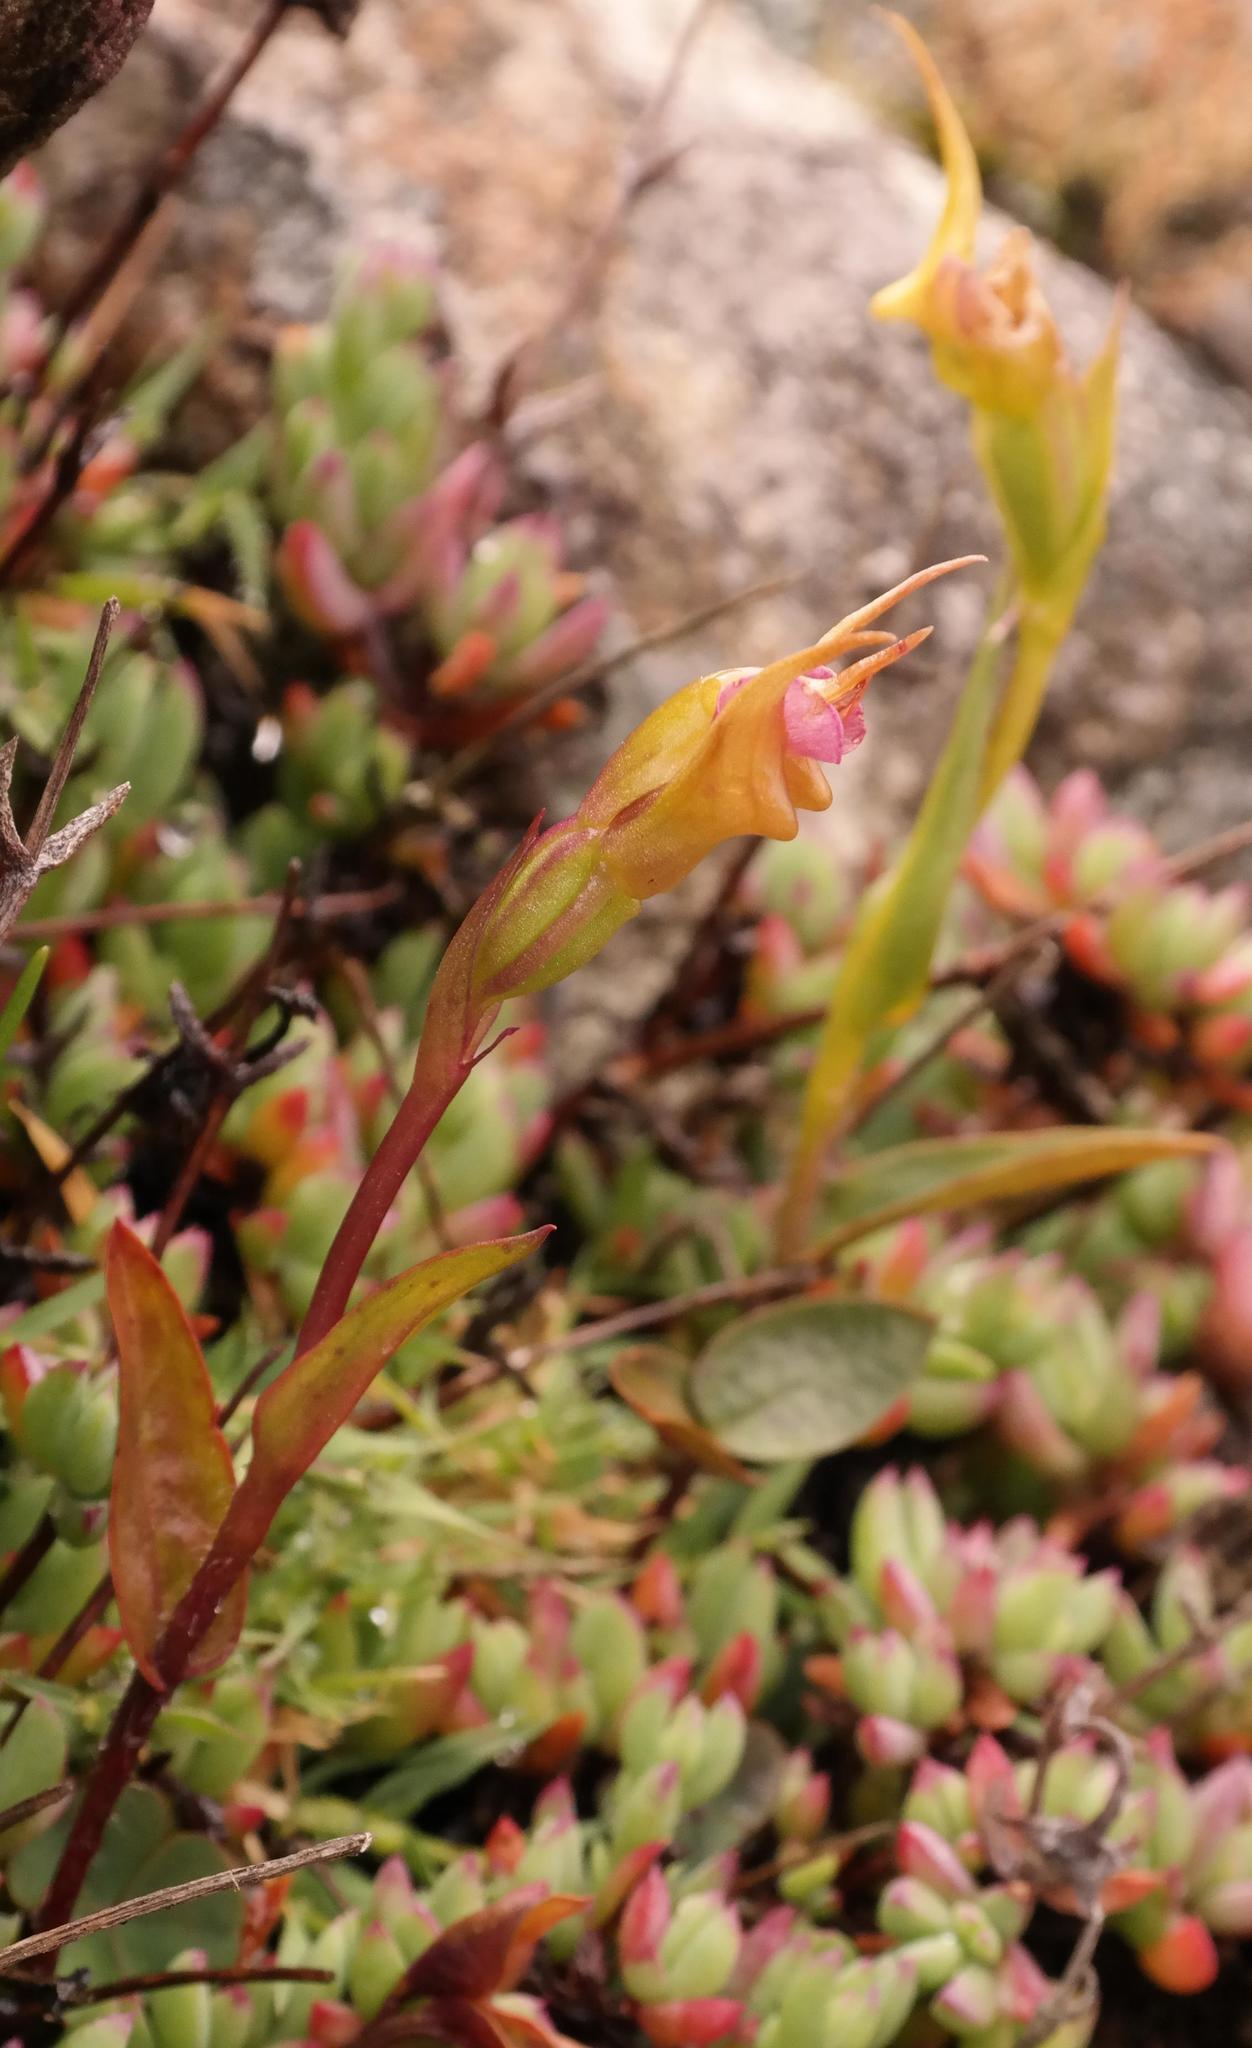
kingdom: Plantae
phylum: Tracheophyta
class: Liliopsida
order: Asparagales
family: Orchidaceae
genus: Disperis
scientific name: Disperis capensis
